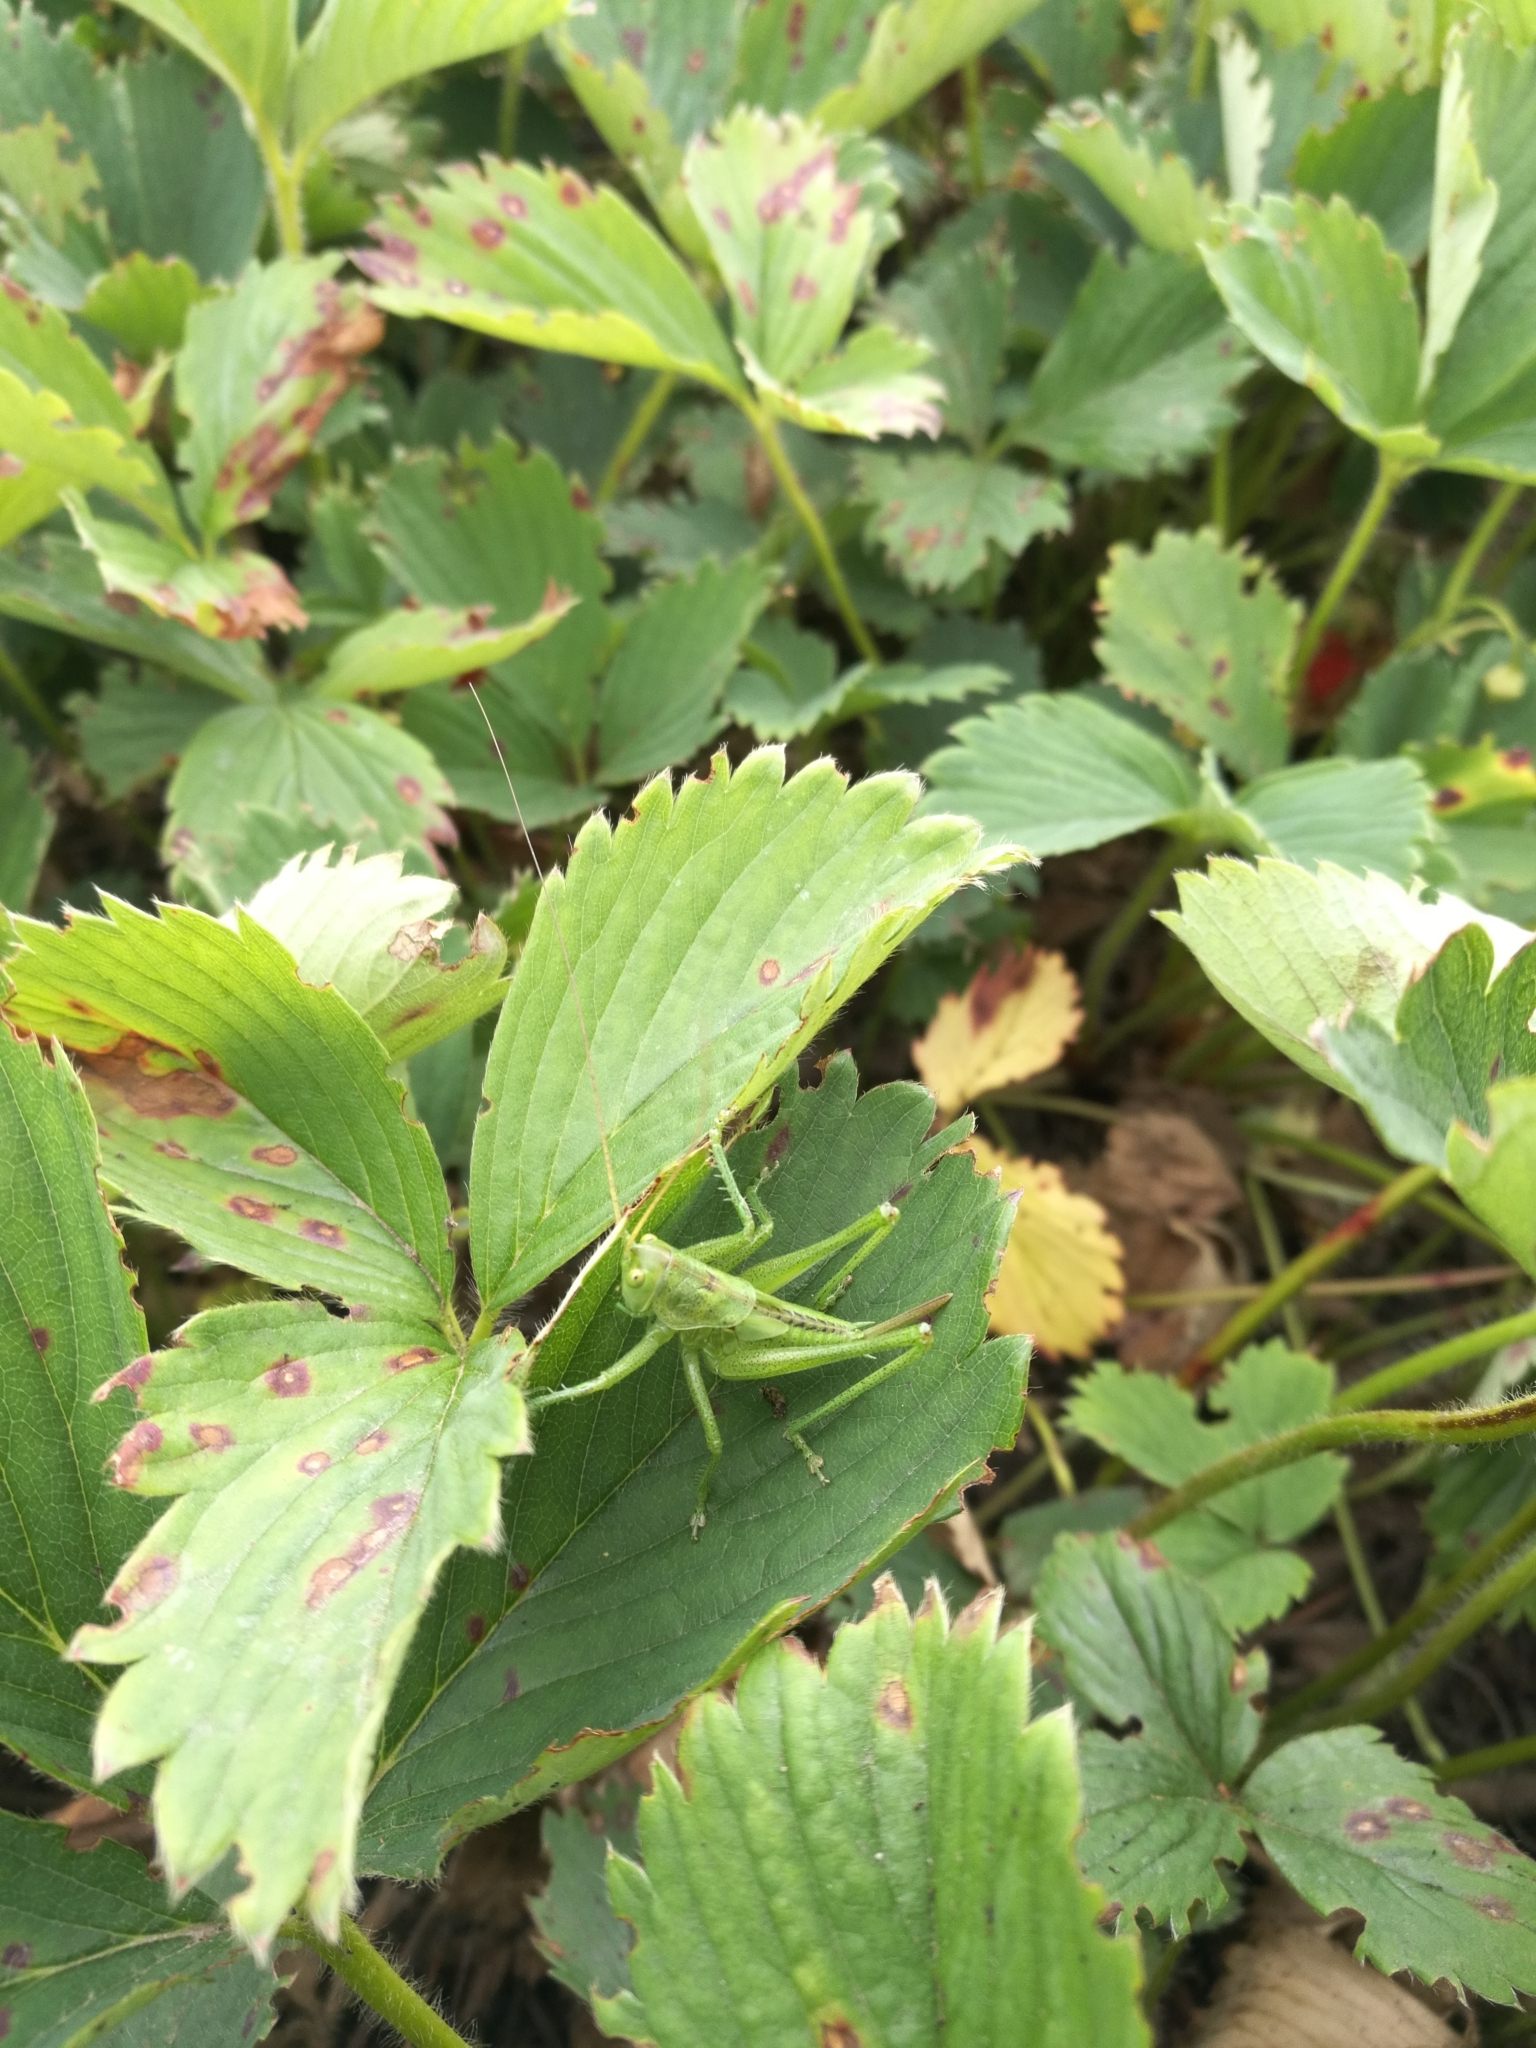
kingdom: Animalia
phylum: Arthropoda
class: Insecta
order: Orthoptera
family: Tettigoniidae
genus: Tettigonia
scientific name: Tettigonia viridissima
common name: Great green bush-cricket
